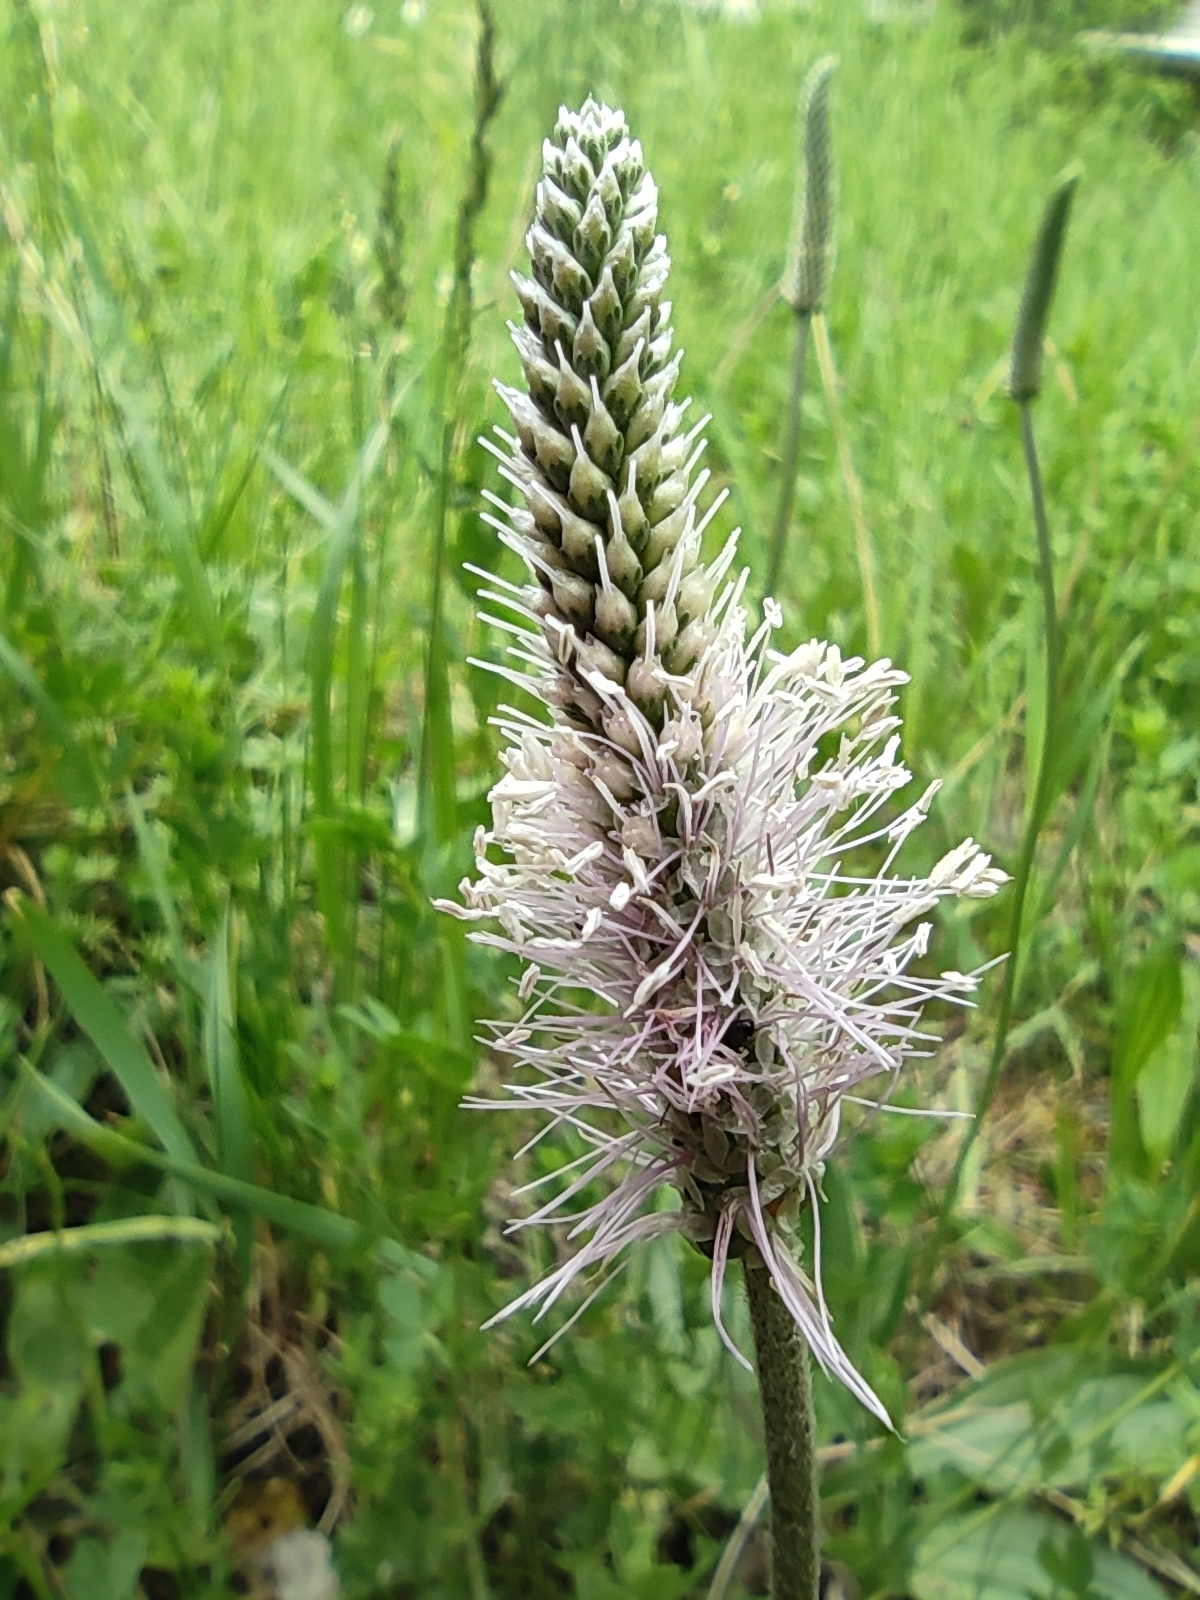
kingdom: Plantae
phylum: Tracheophyta
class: Magnoliopsida
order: Lamiales
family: Plantaginaceae
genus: Plantago
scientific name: Plantago media
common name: Hoary plantain
